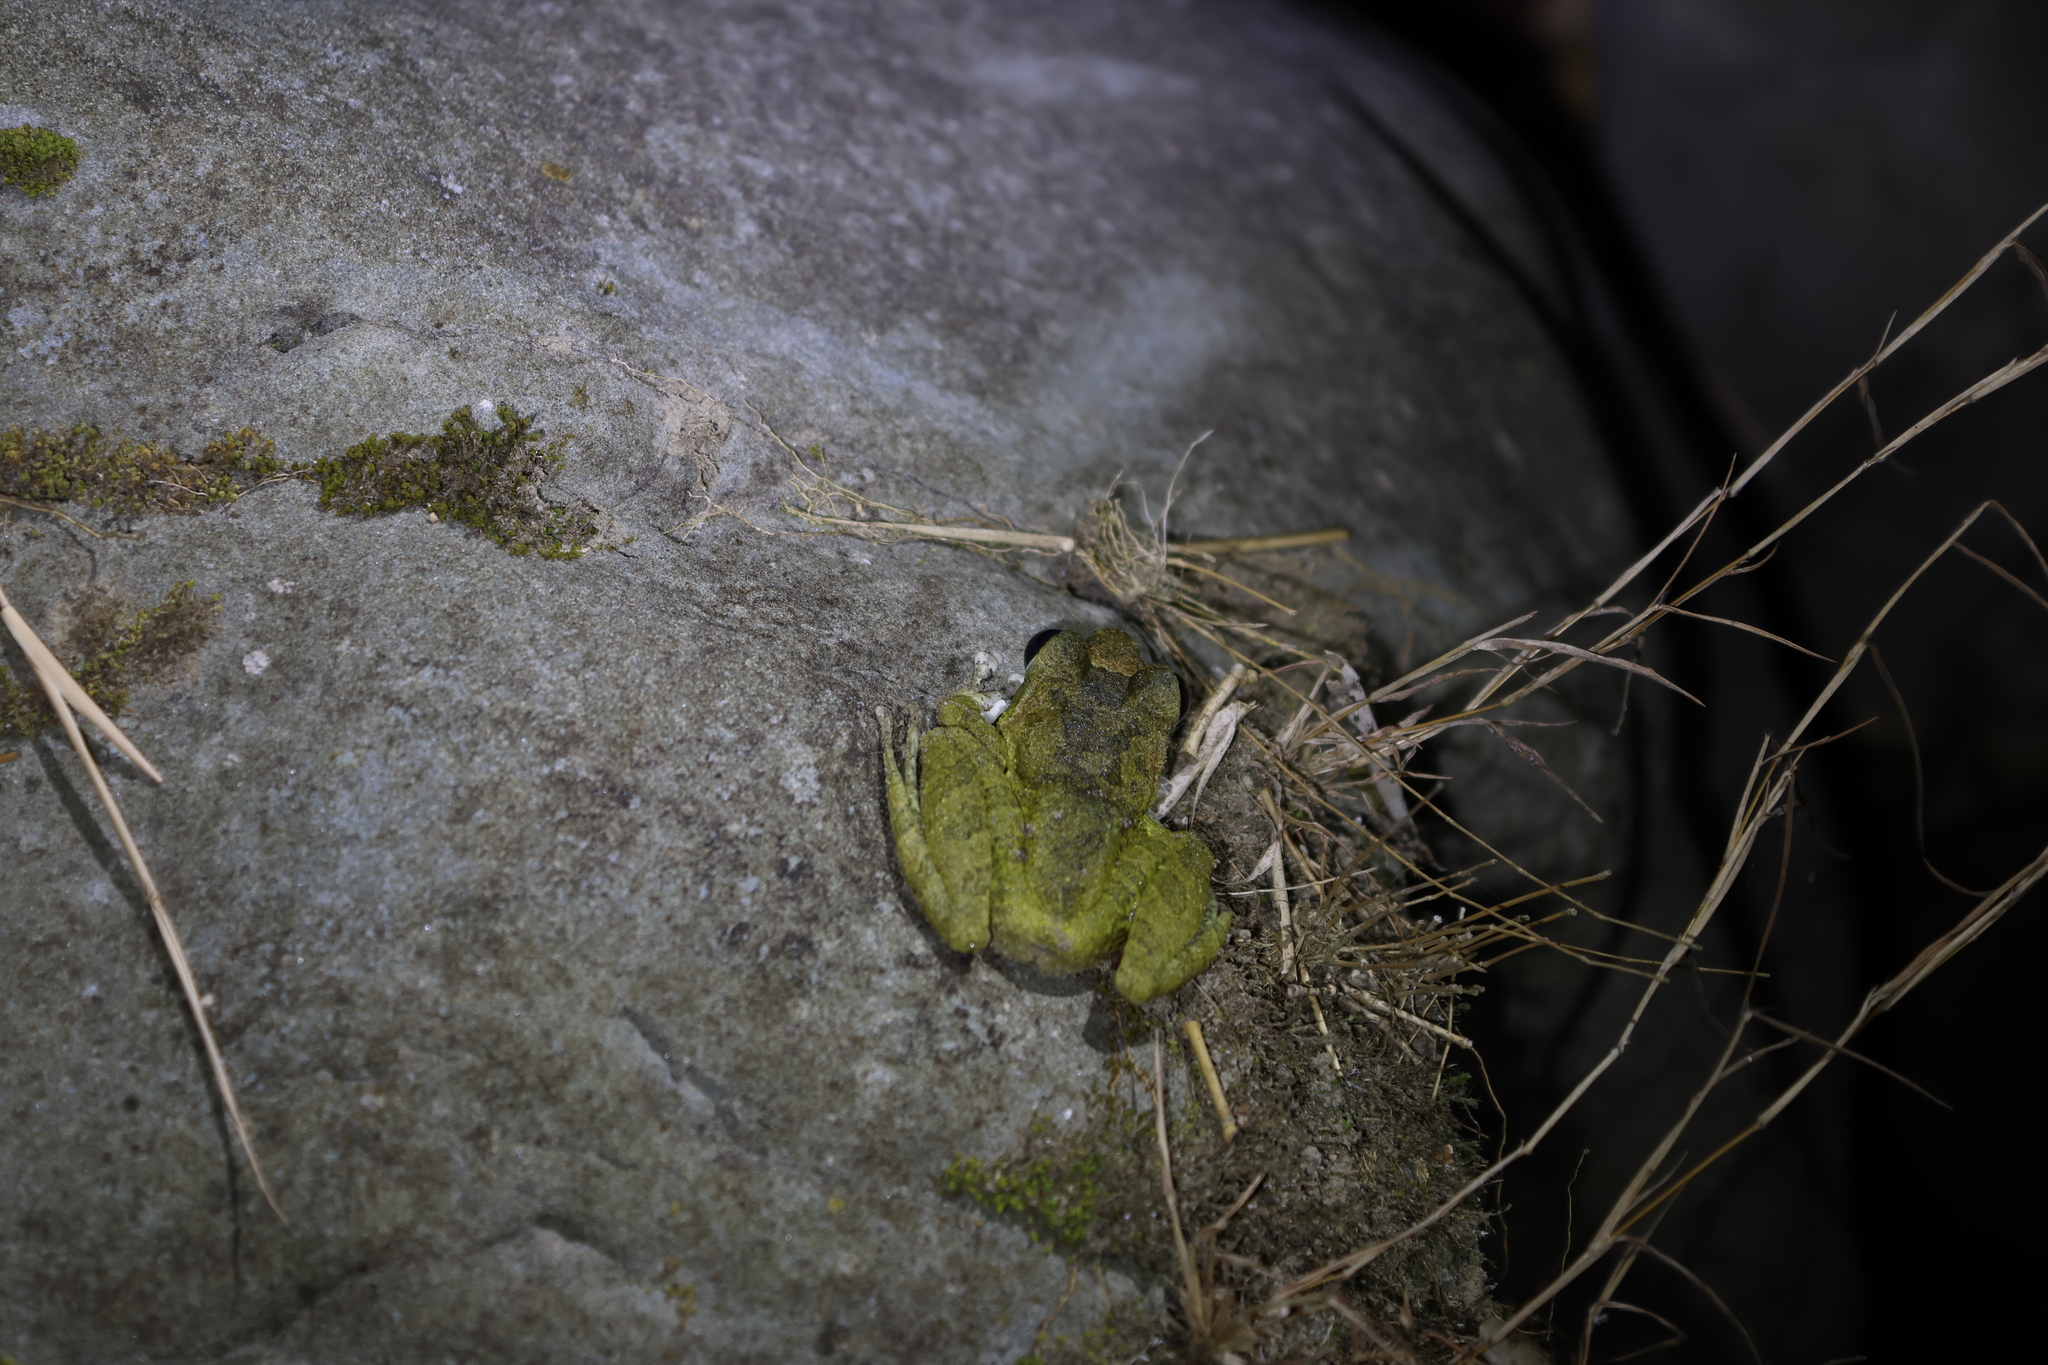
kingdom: Animalia
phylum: Chordata
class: Amphibia
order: Anura
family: Rhacophoridae
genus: Buergeria
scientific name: Buergeria robusta
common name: Brown treefrog
